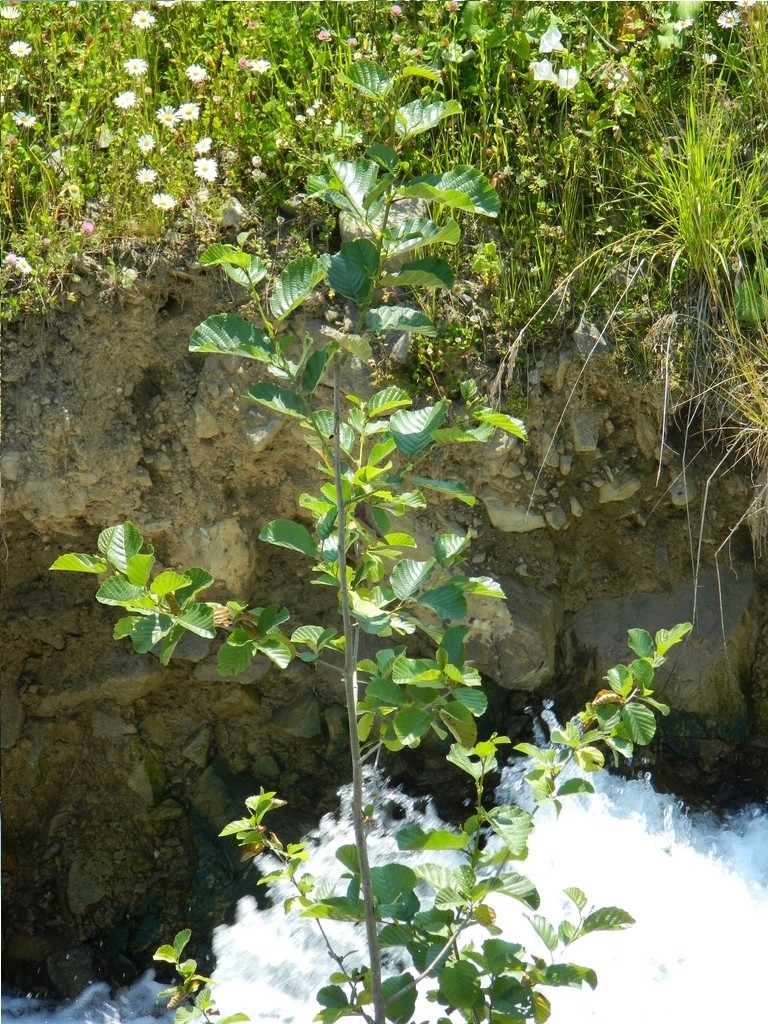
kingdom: Plantae
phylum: Tracheophyta
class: Magnoliopsida
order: Fagales
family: Betulaceae
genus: Alnus
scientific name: Alnus glutinosa
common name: Black alder
